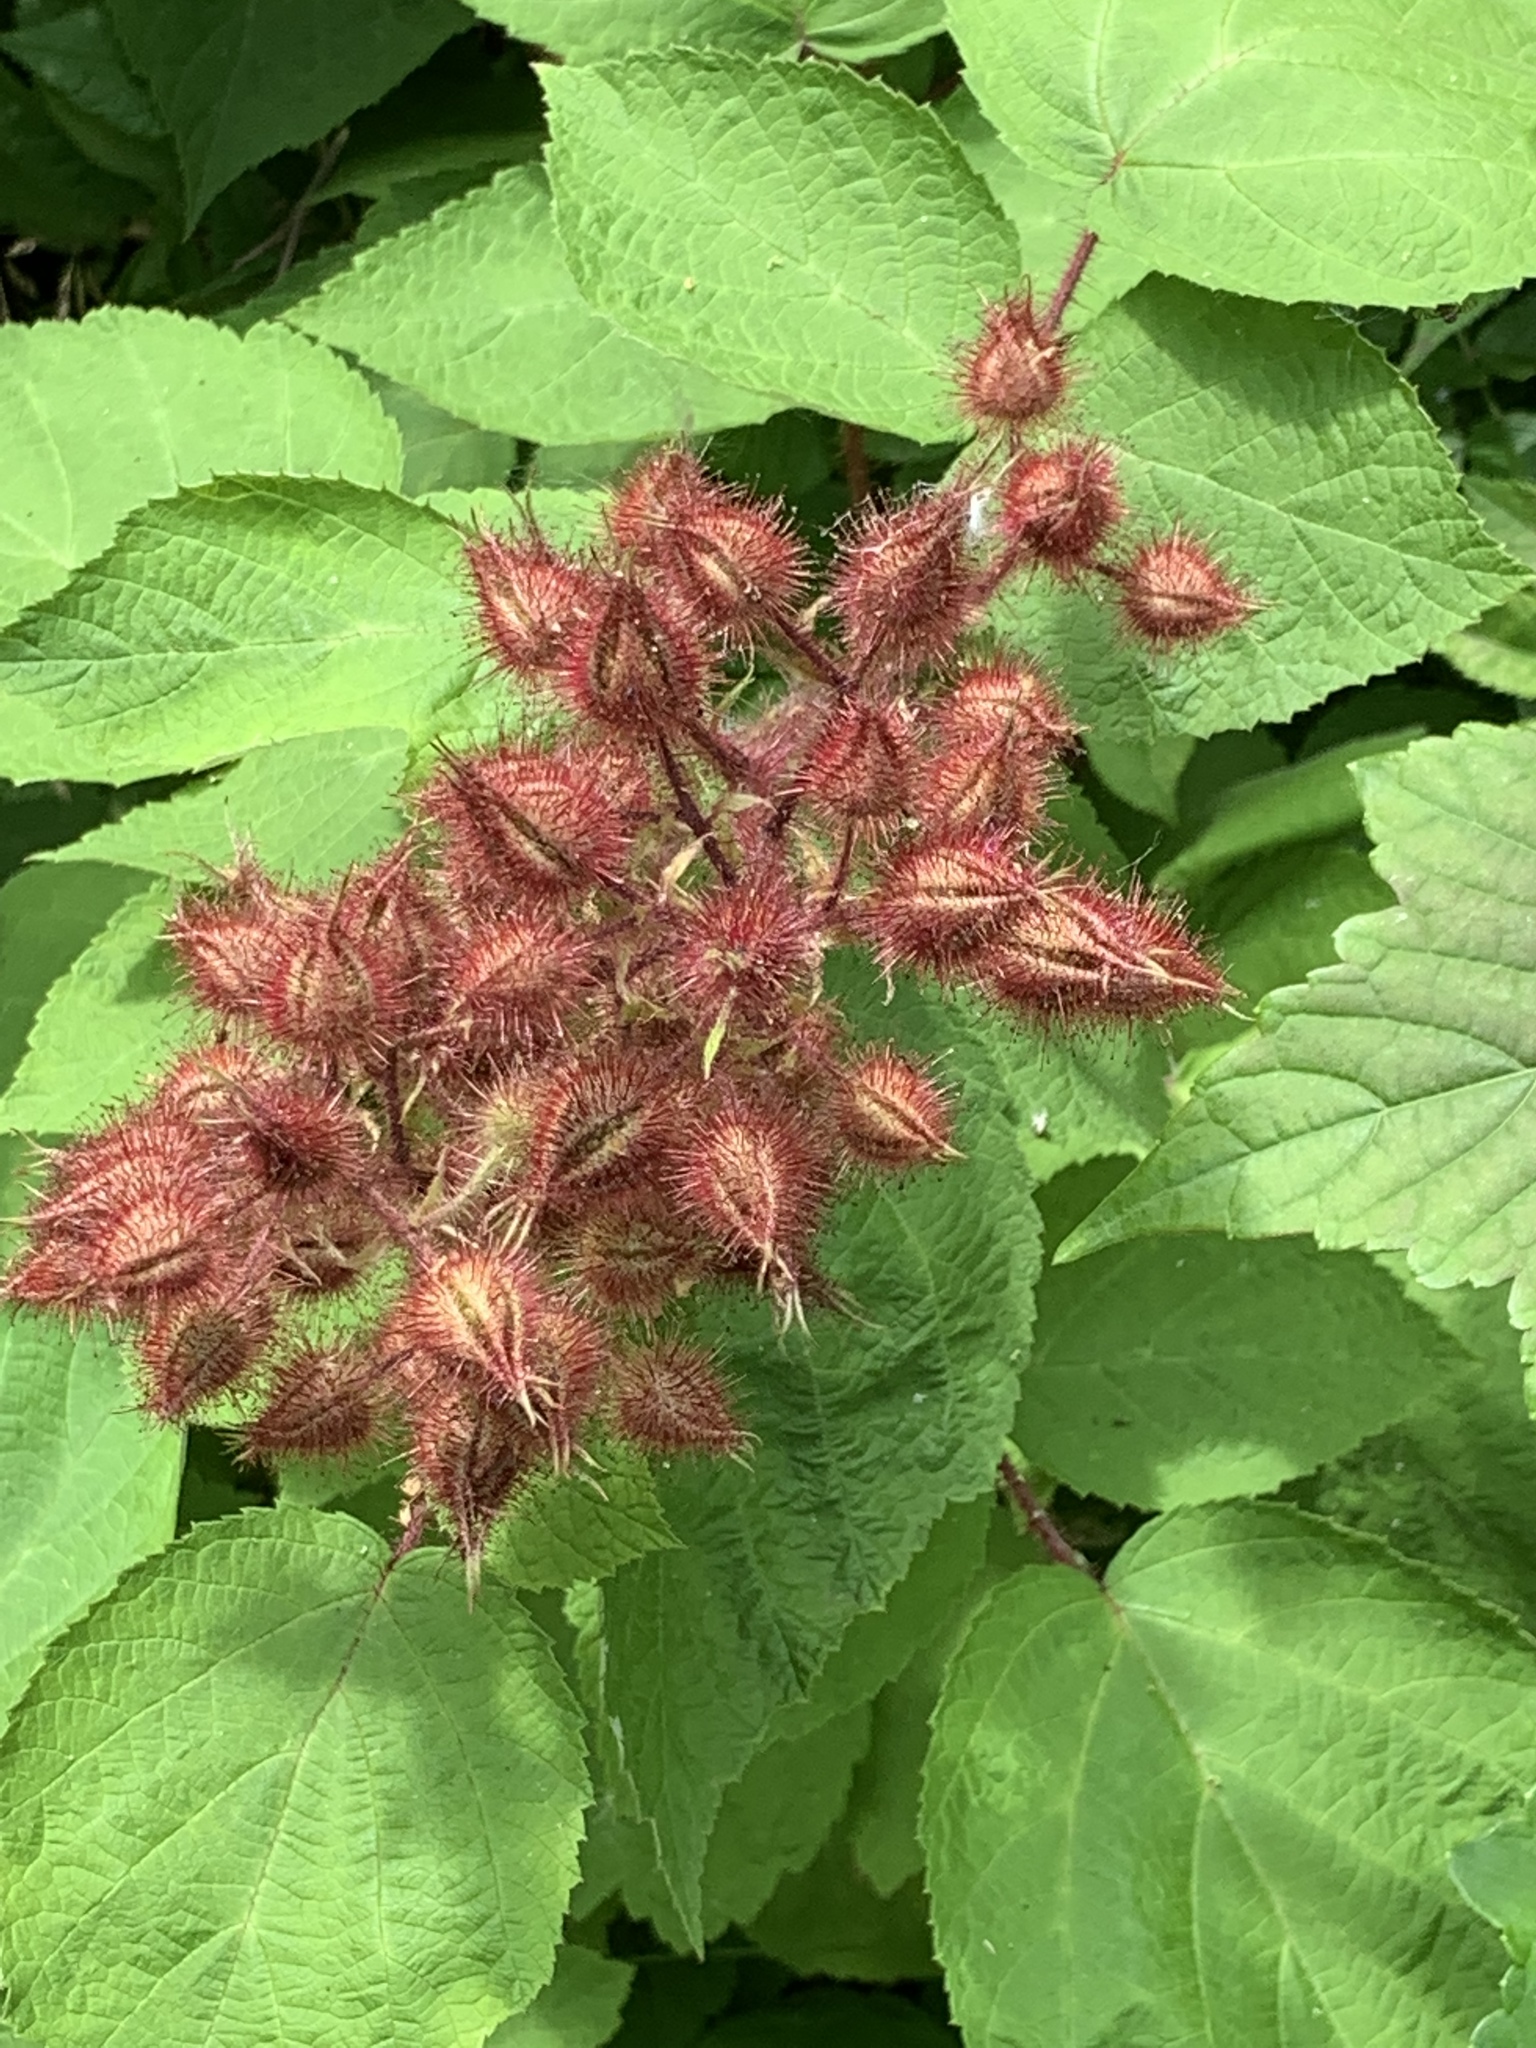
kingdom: Plantae
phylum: Tracheophyta
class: Magnoliopsida
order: Rosales
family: Rosaceae
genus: Rubus
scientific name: Rubus phoenicolasius
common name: Japanese wineberry
